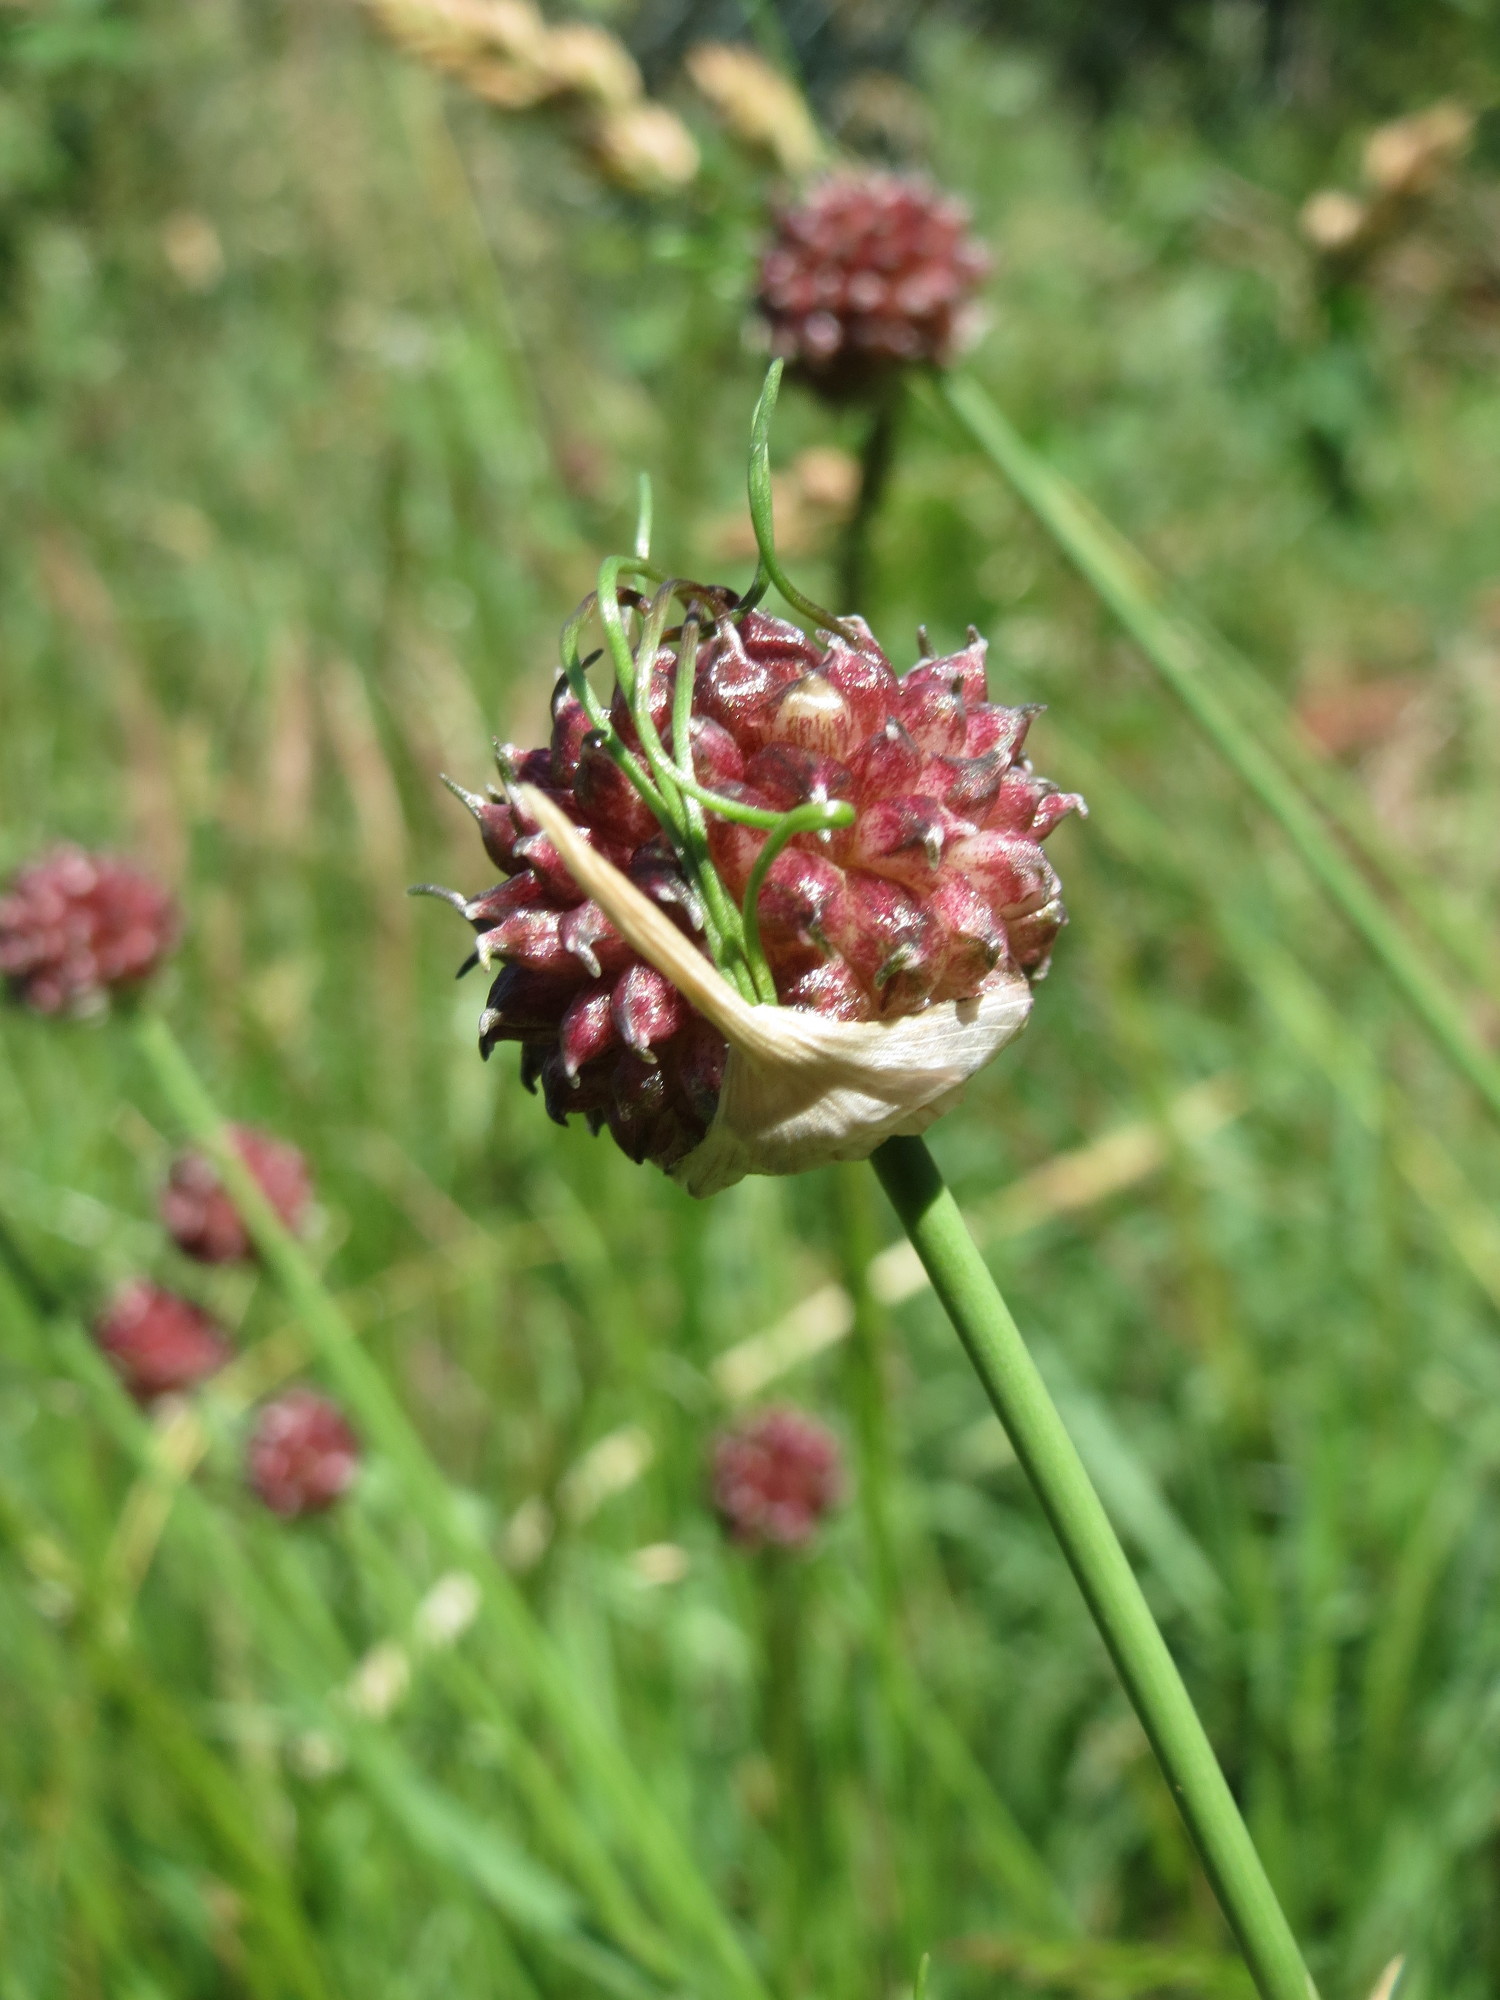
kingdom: Plantae
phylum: Tracheophyta
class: Liliopsida
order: Asparagales
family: Amaryllidaceae
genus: Allium
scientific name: Allium vineale
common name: Crow garlic
